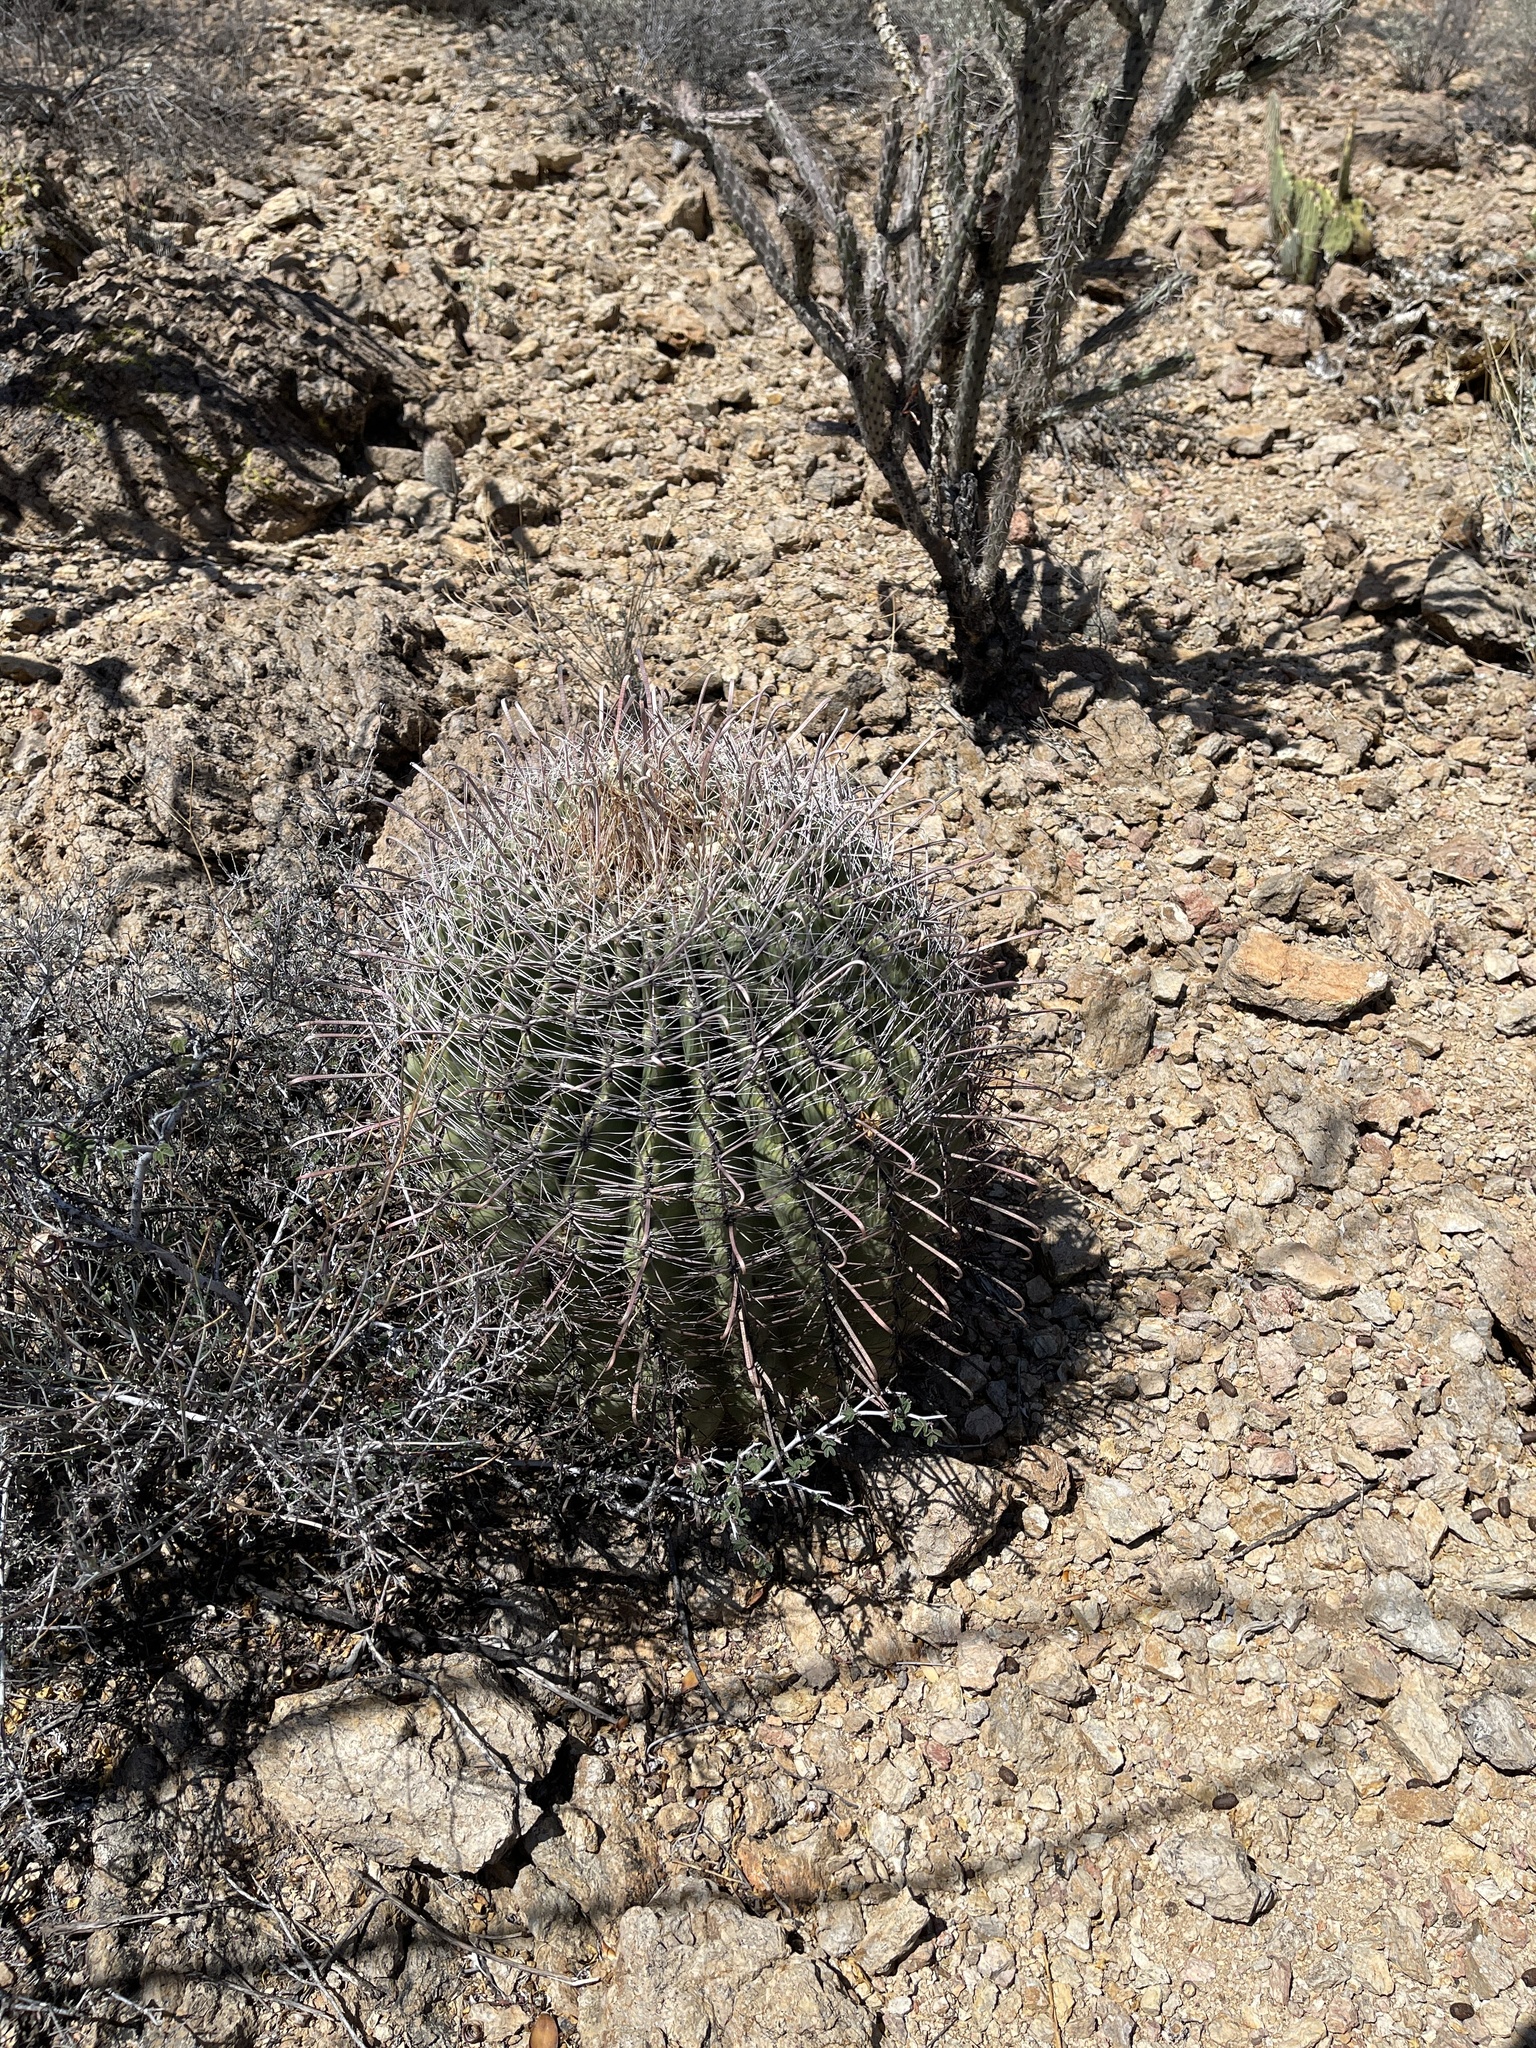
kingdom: Plantae
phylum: Tracheophyta
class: Magnoliopsida
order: Caryophyllales
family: Cactaceae
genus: Ferocactus
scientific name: Ferocactus wislizeni
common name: Candy barrel cactus
